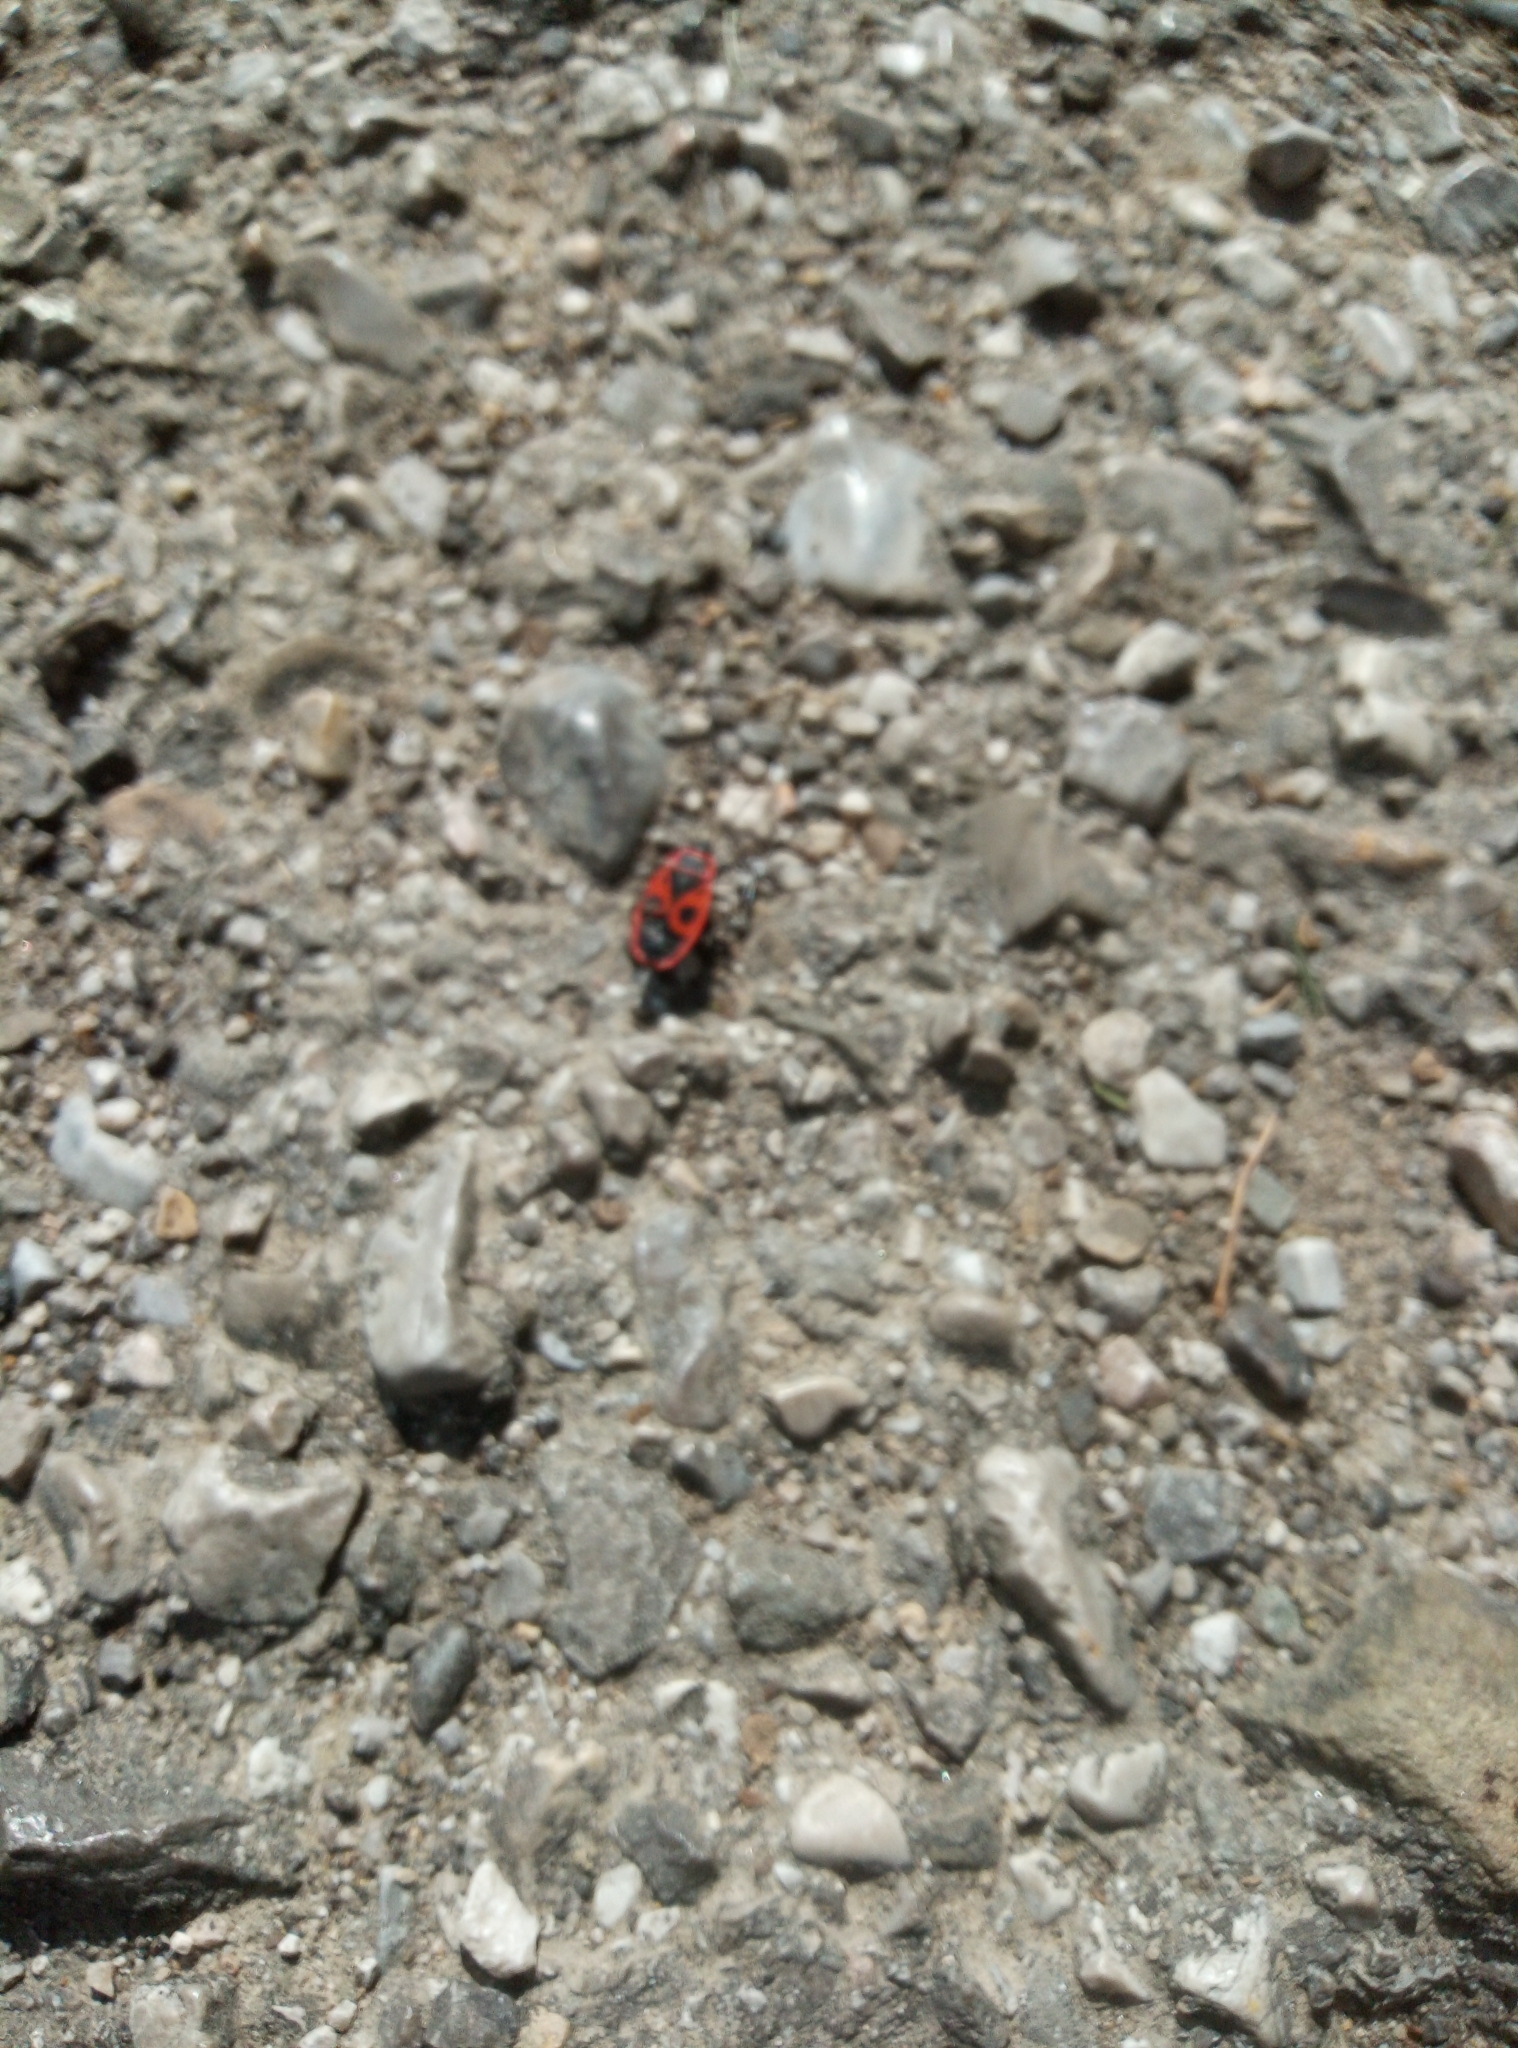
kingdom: Animalia
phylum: Arthropoda
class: Insecta
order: Hemiptera
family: Pyrrhocoridae
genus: Pyrrhocoris
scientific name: Pyrrhocoris apterus
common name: Firebug
